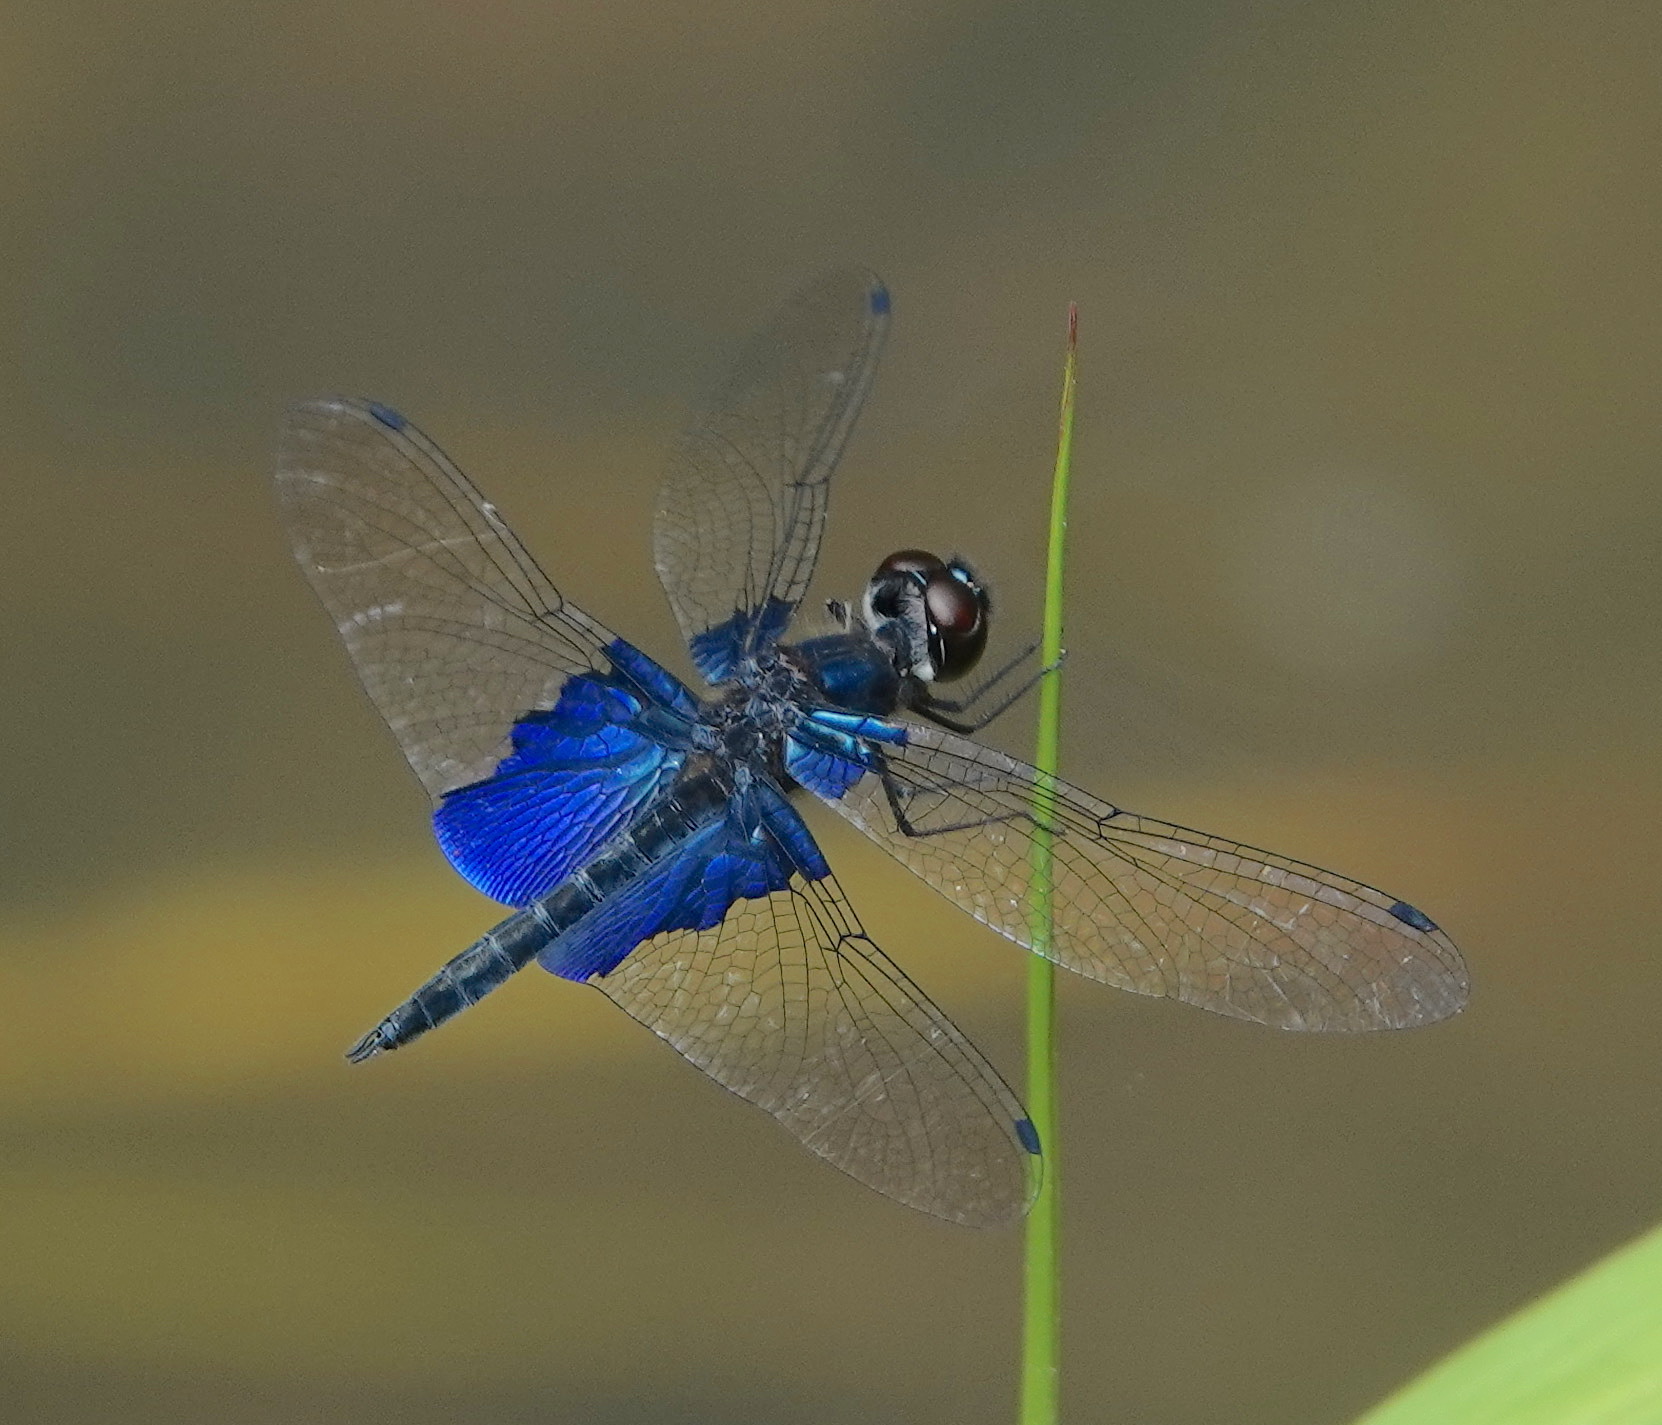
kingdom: Animalia
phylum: Arthropoda
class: Insecta
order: Odonata
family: Libellulidae
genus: Rhyothemis
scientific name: Rhyothemis triangularis
